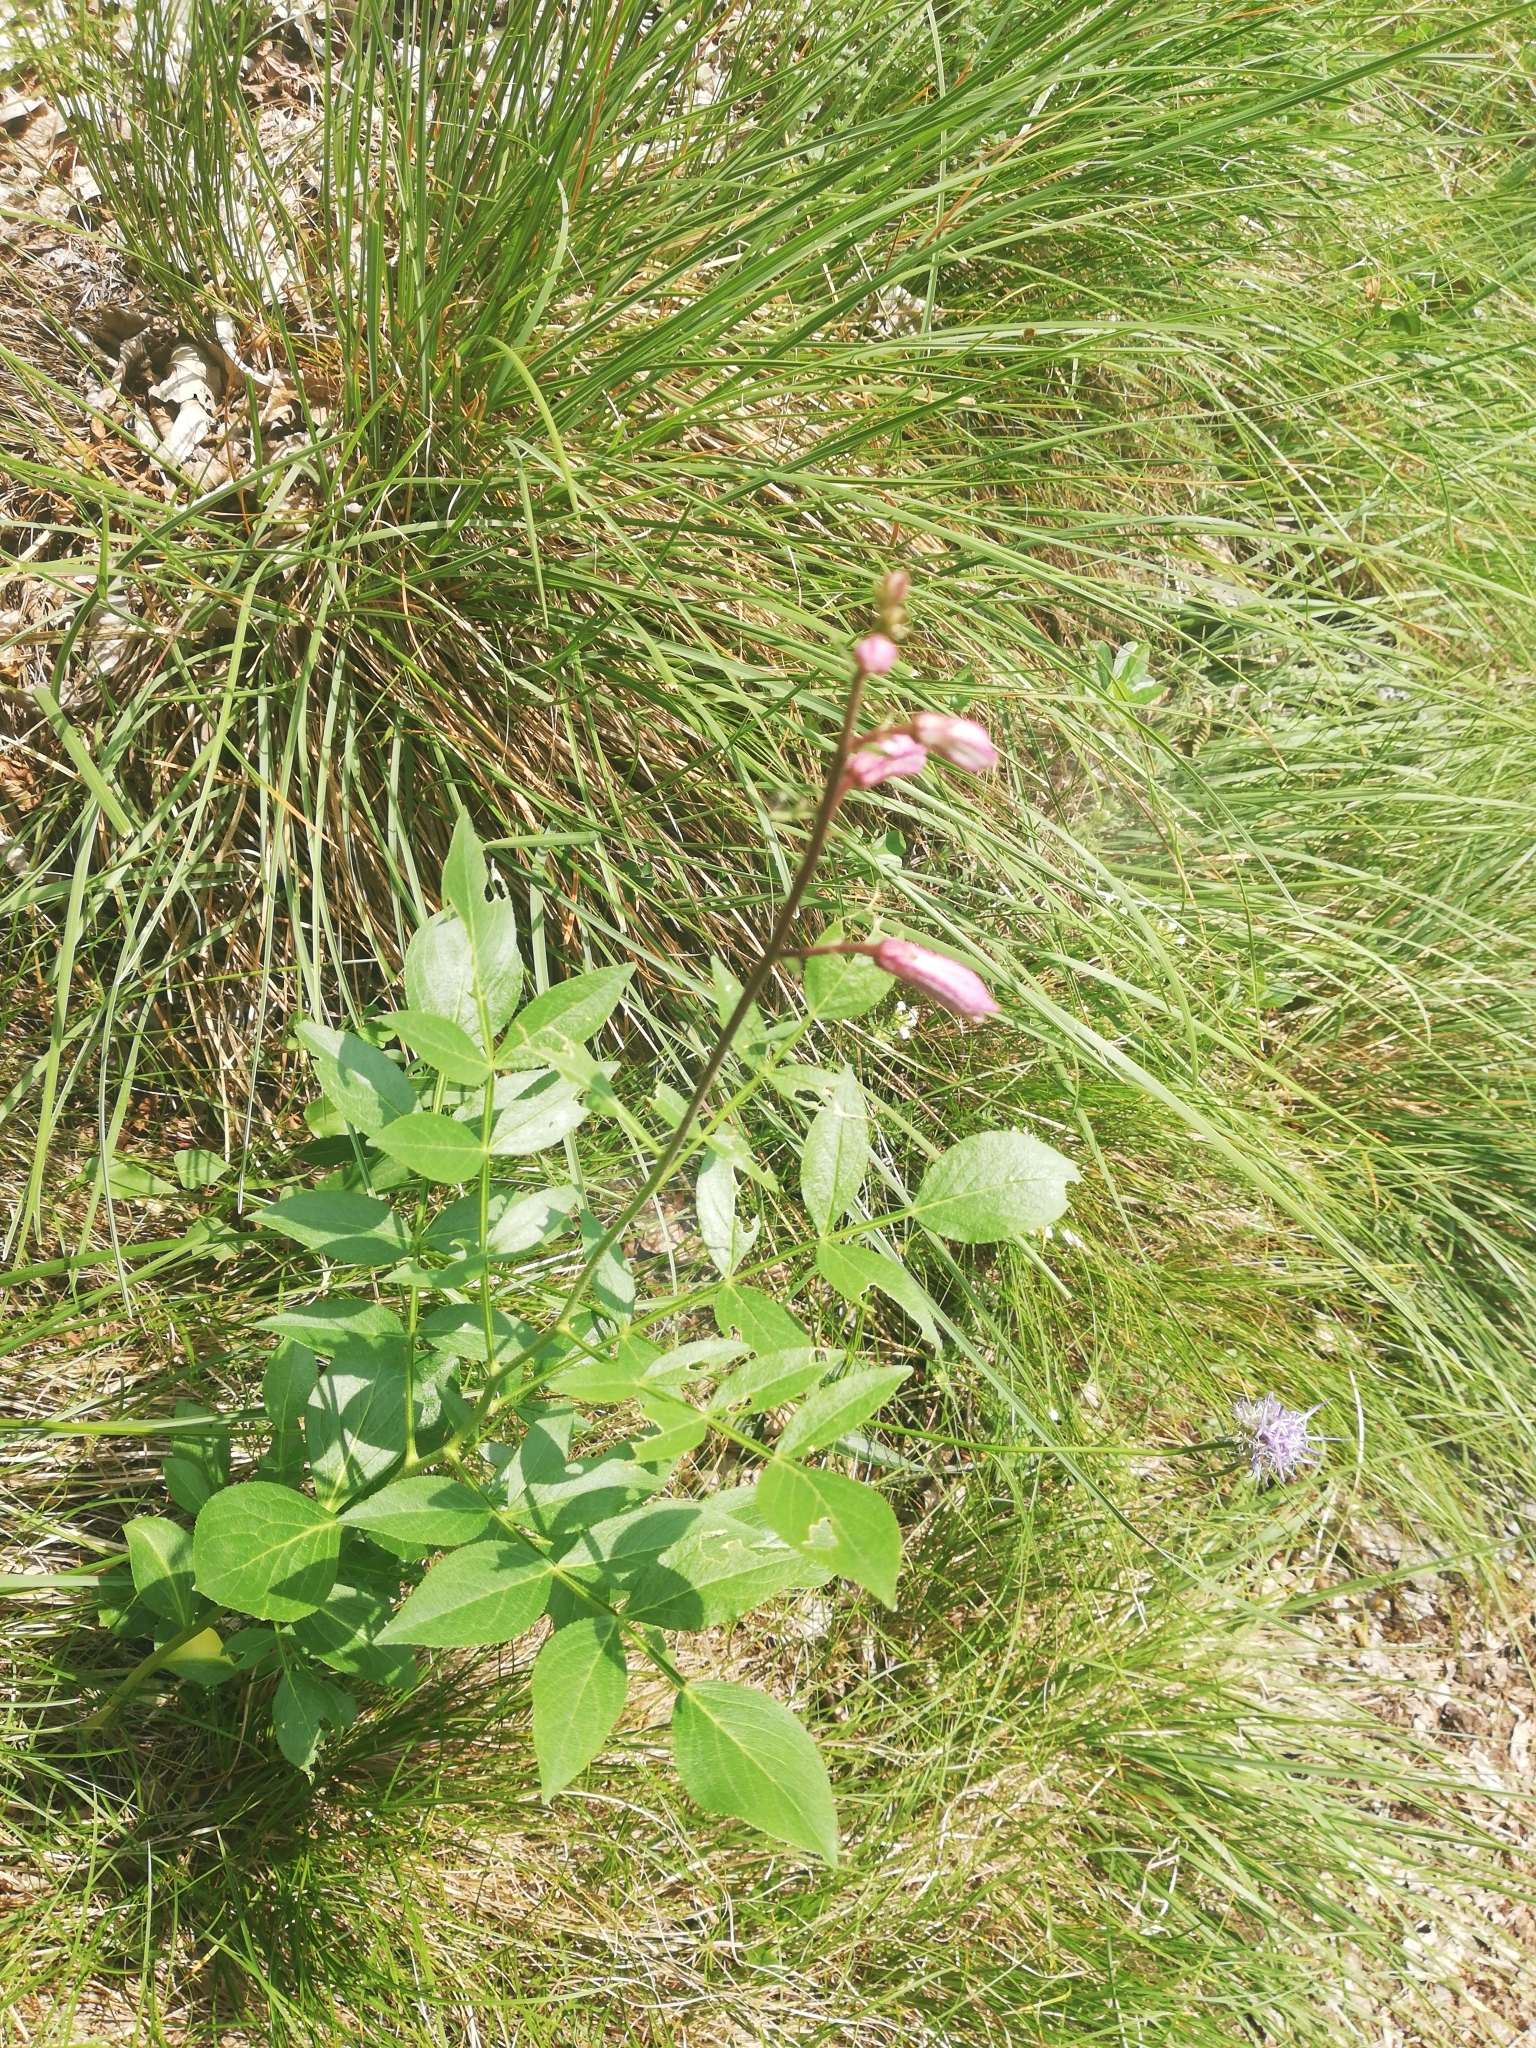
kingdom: Plantae
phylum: Tracheophyta
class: Magnoliopsida
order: Sapindales
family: Rutaceae
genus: Dictamnus
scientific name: Dictamnus albus
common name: Gasplant
